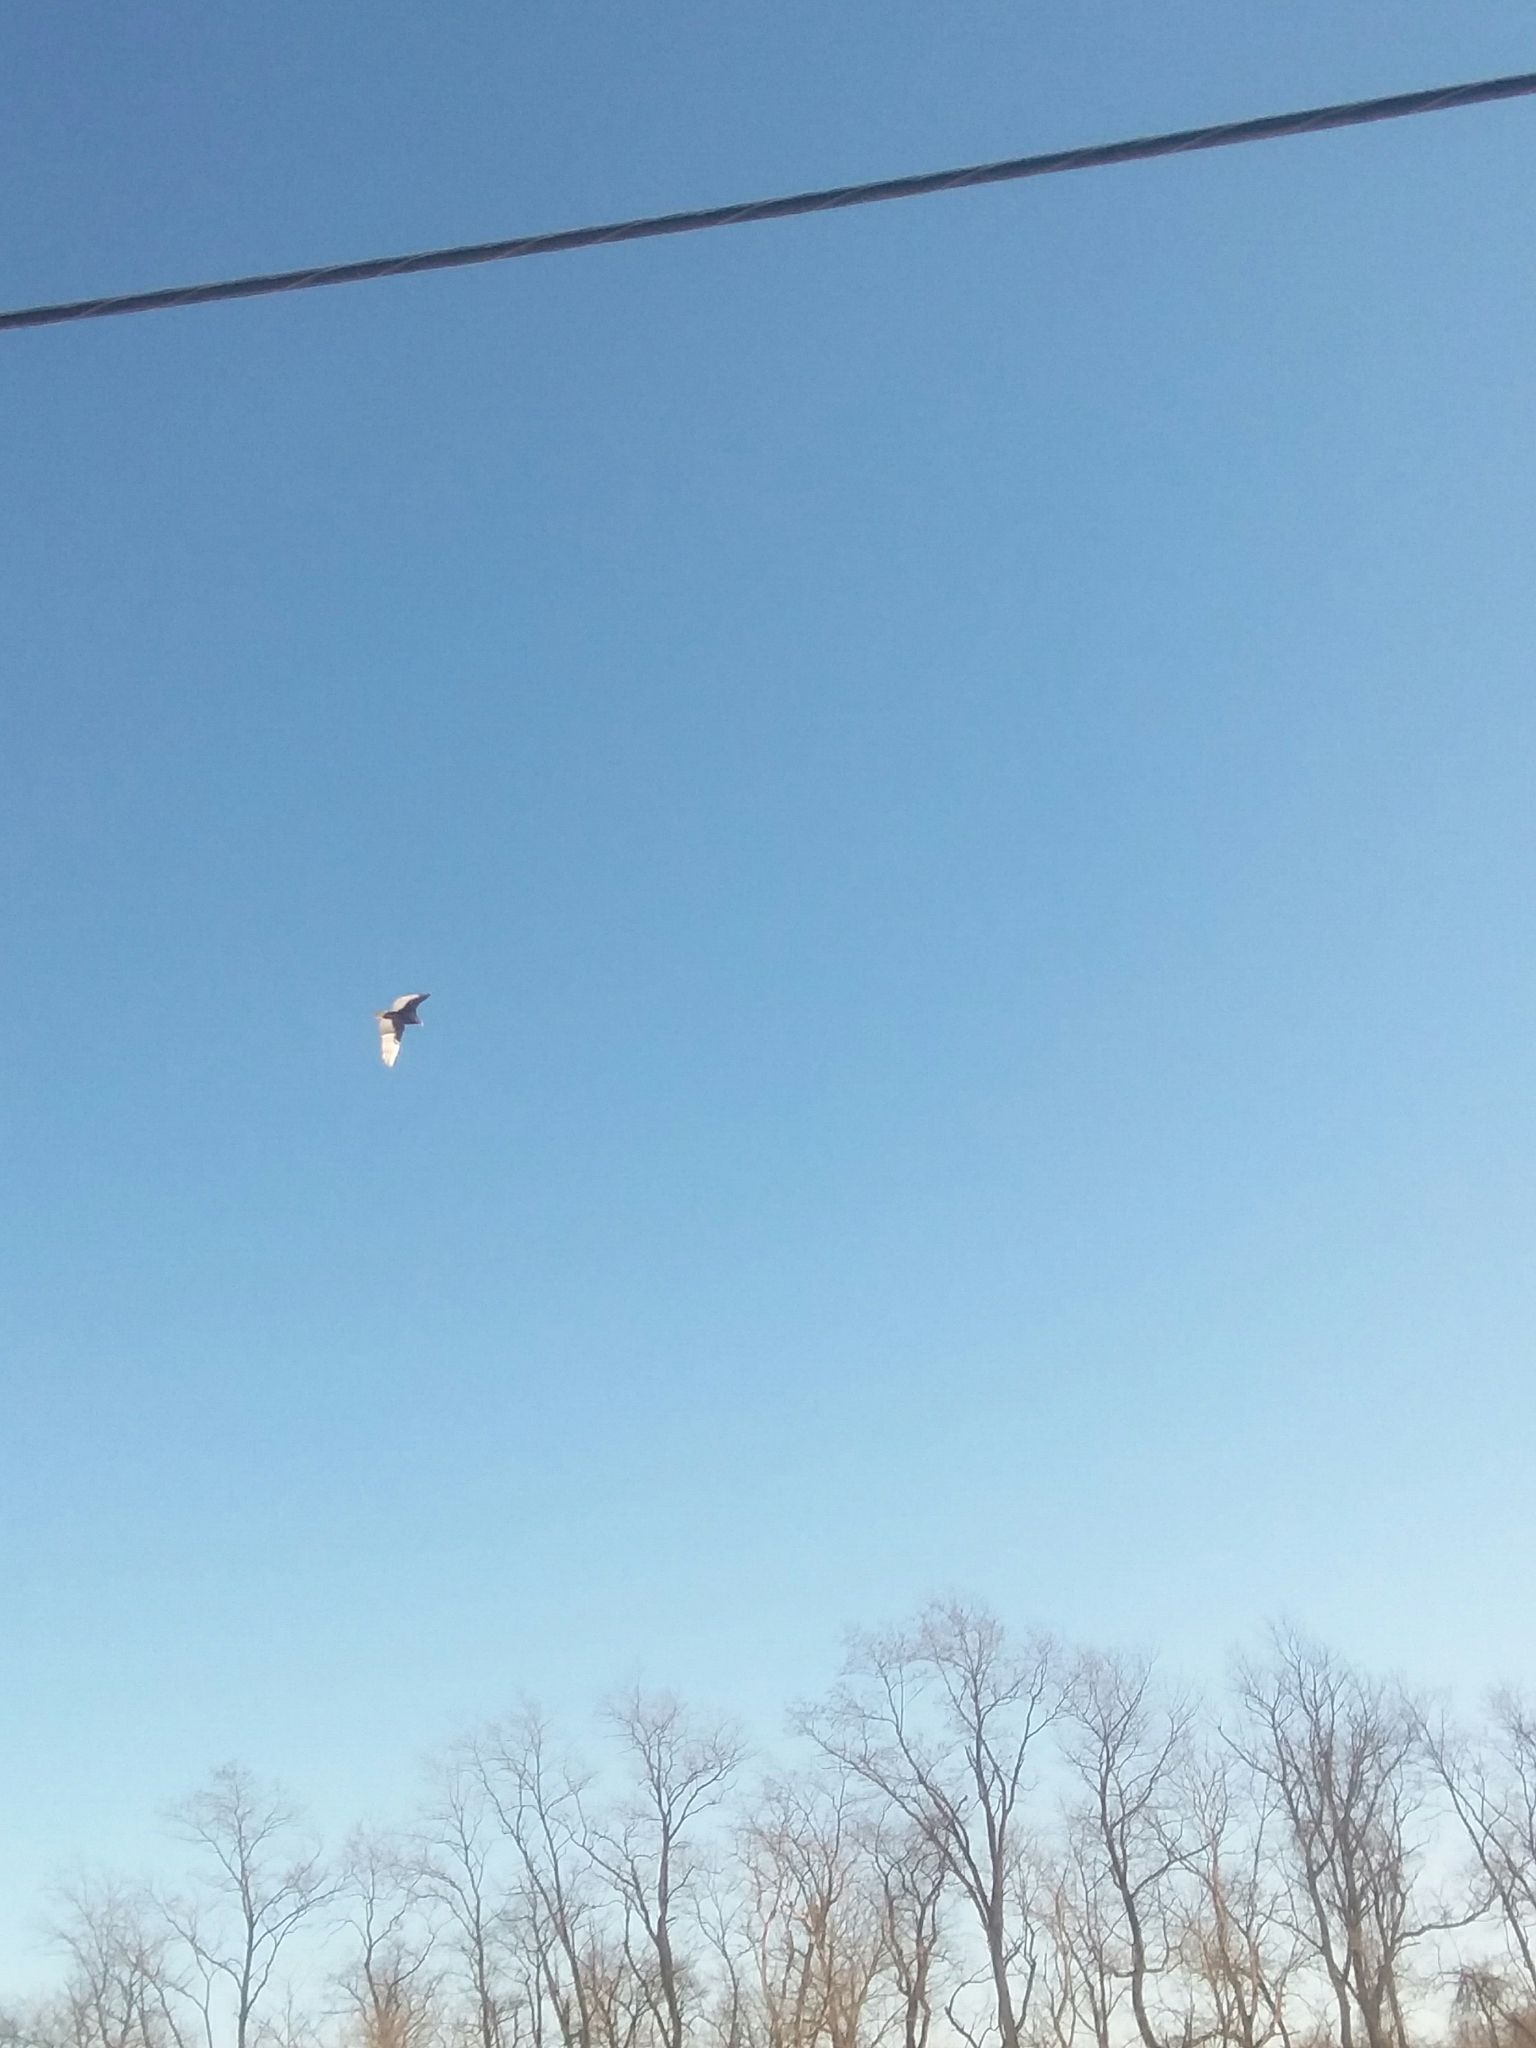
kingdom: Animalia
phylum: Chordata
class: Aves
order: Accipitriformes
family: Cathartidae
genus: Cathartes
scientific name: Cathartes aura
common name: Turkey vulture
